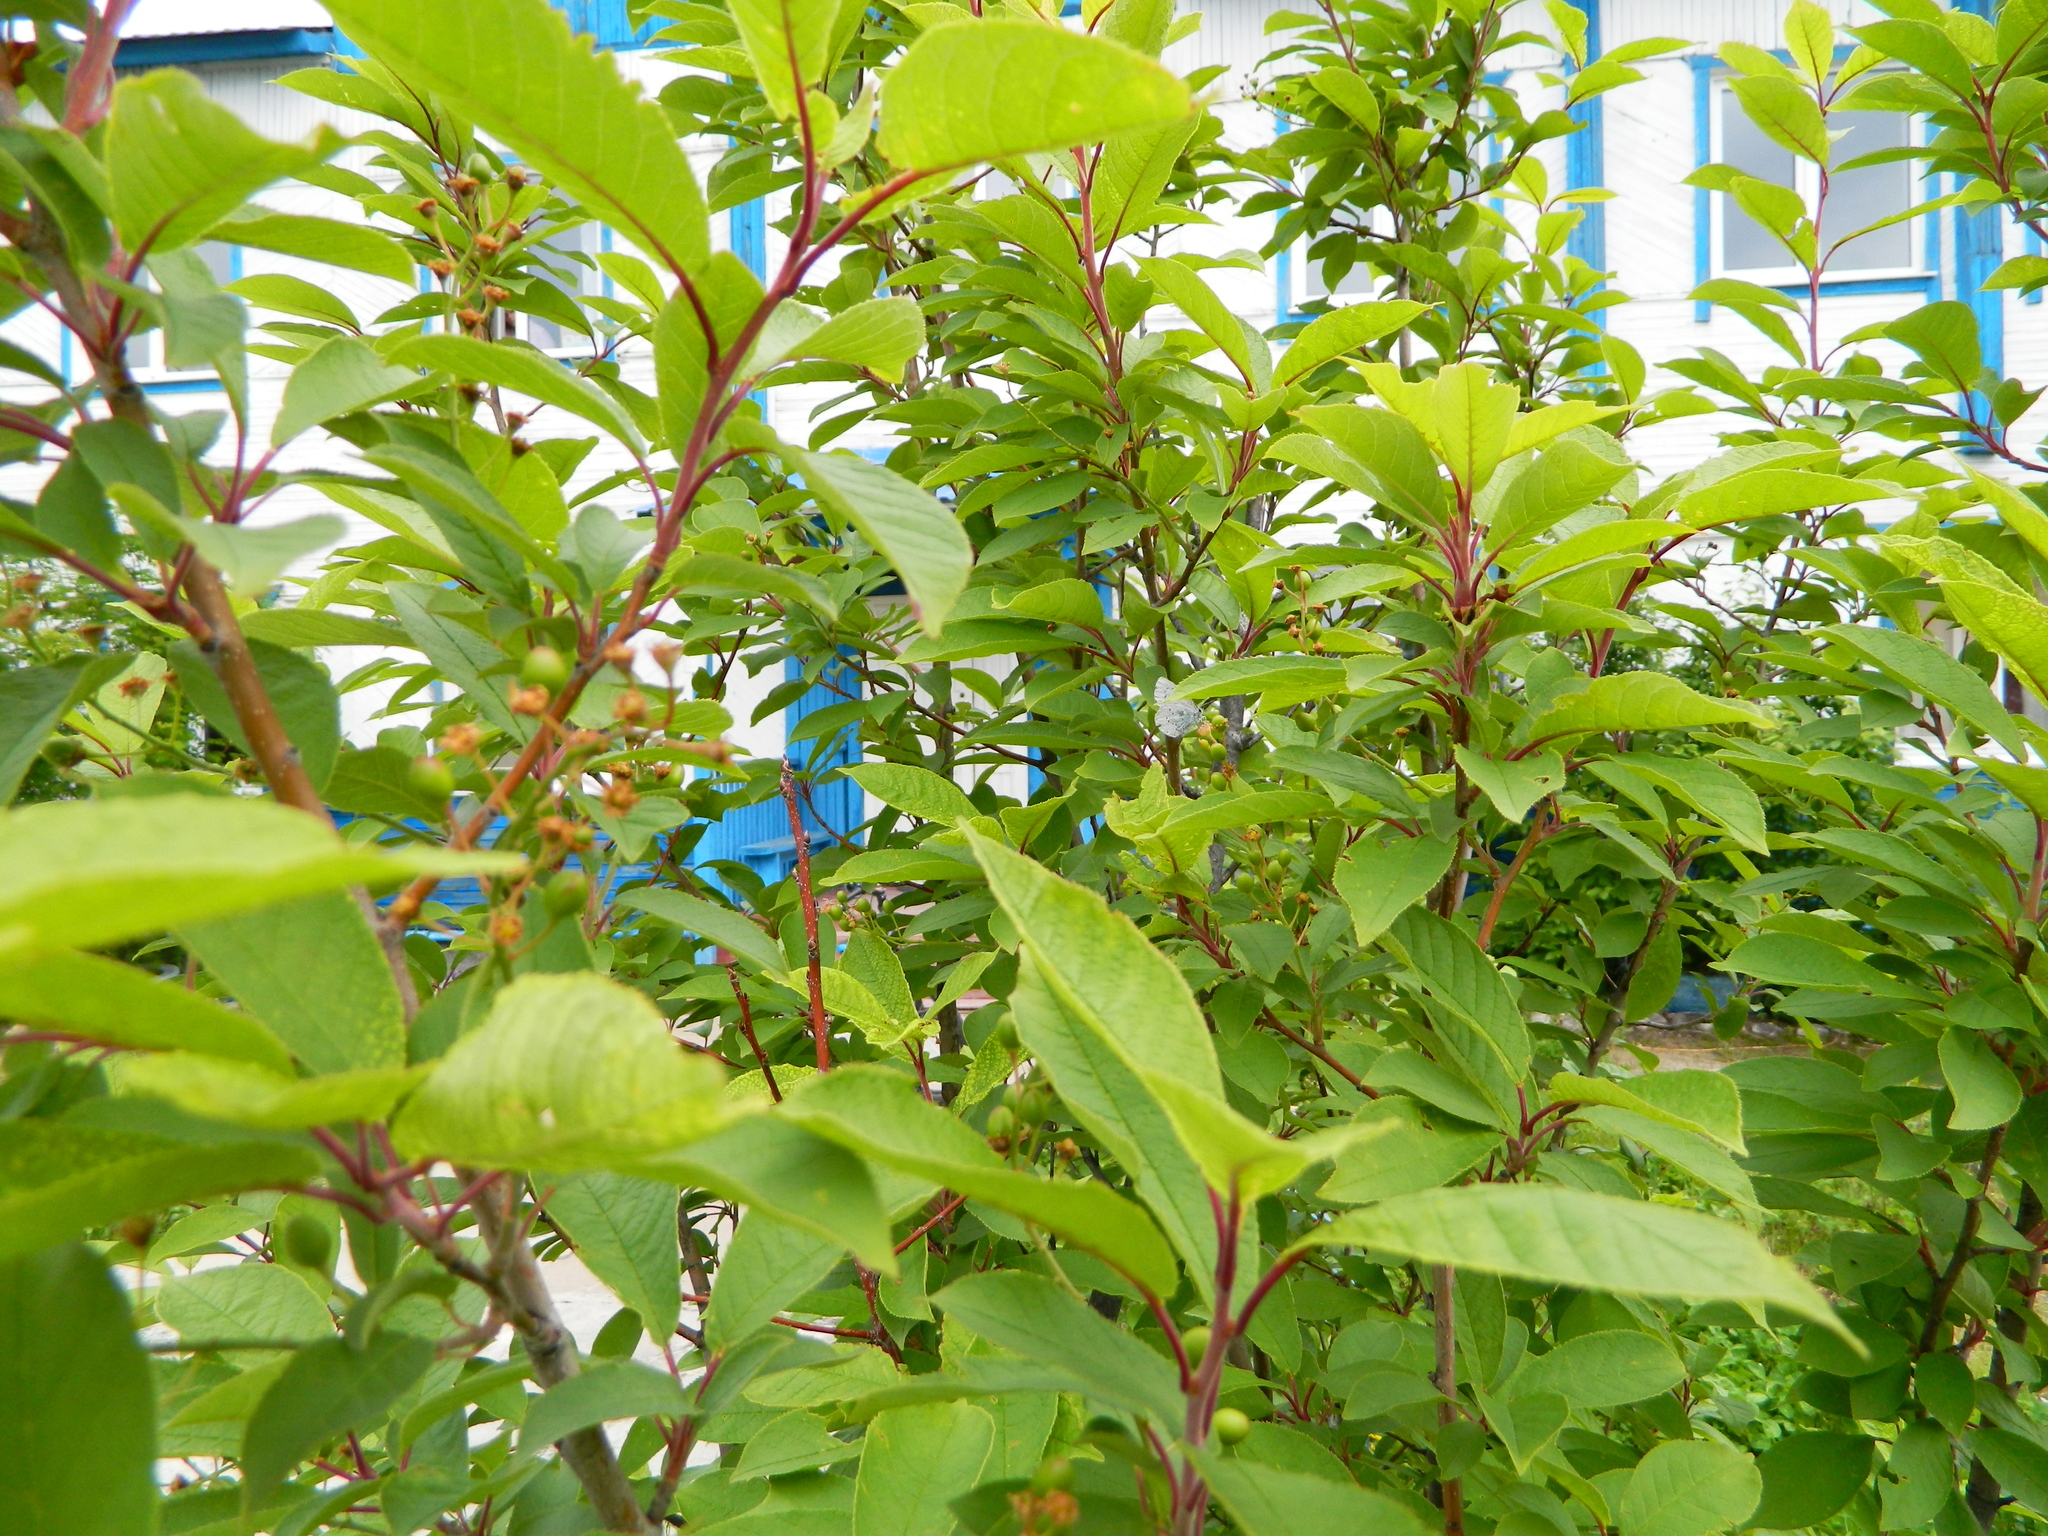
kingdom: Plantae
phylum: Tracheophyta
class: Magnoliopsida
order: Rosales
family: Rosaceae
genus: Prunus
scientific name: Prunus padus
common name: Bird cherry
